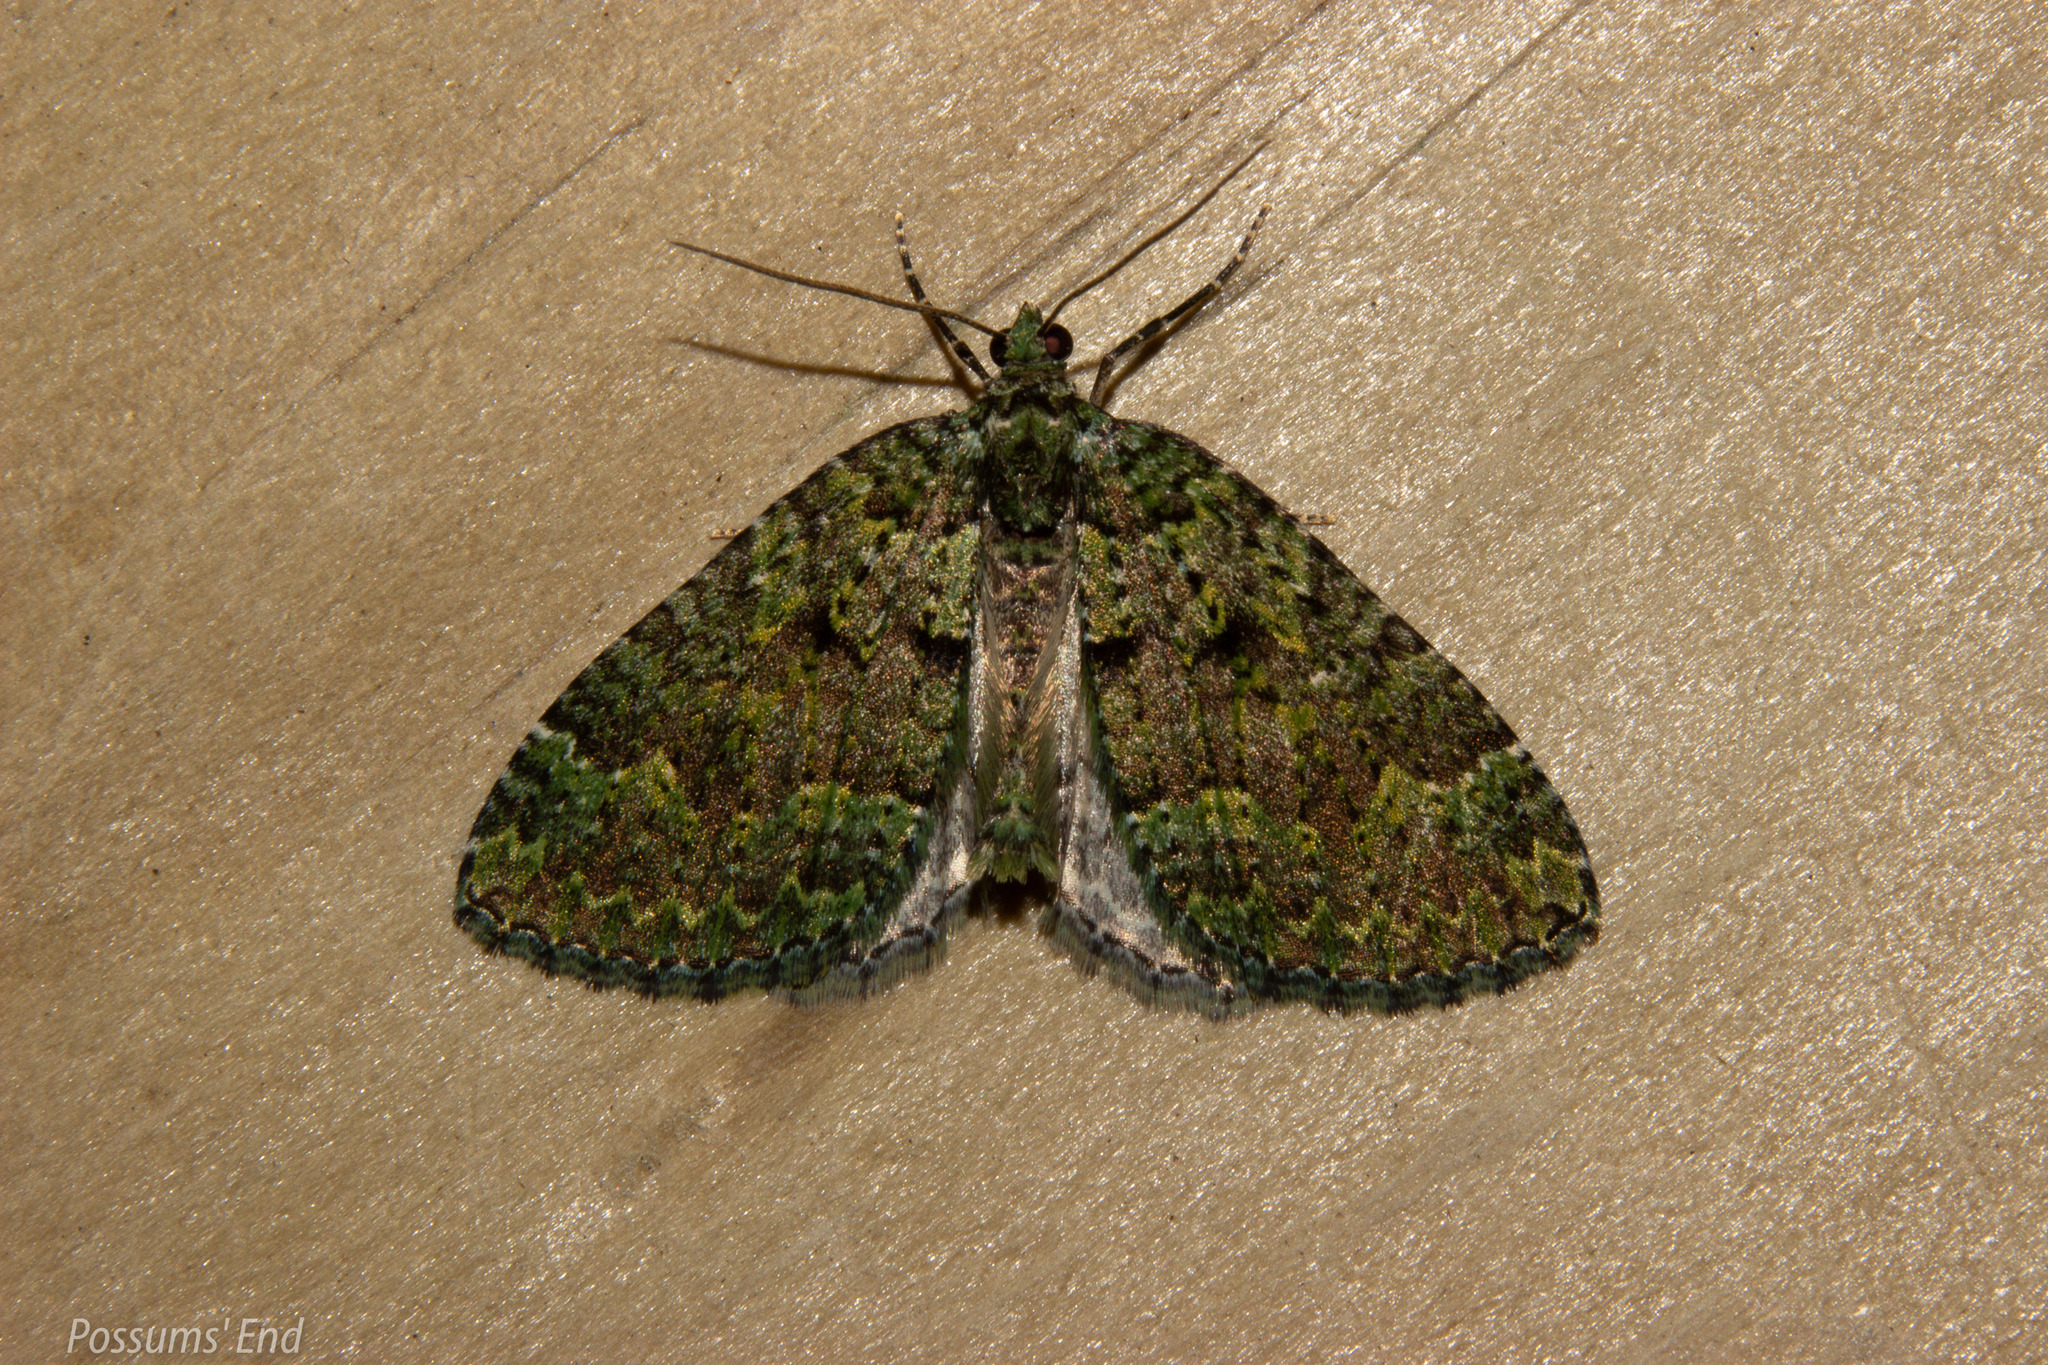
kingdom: Animalia
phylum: Arthropoda
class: Insecta
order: Lepidoptera
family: Geometridae
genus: Austrocidaria
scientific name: Austrocidaria callichlora
